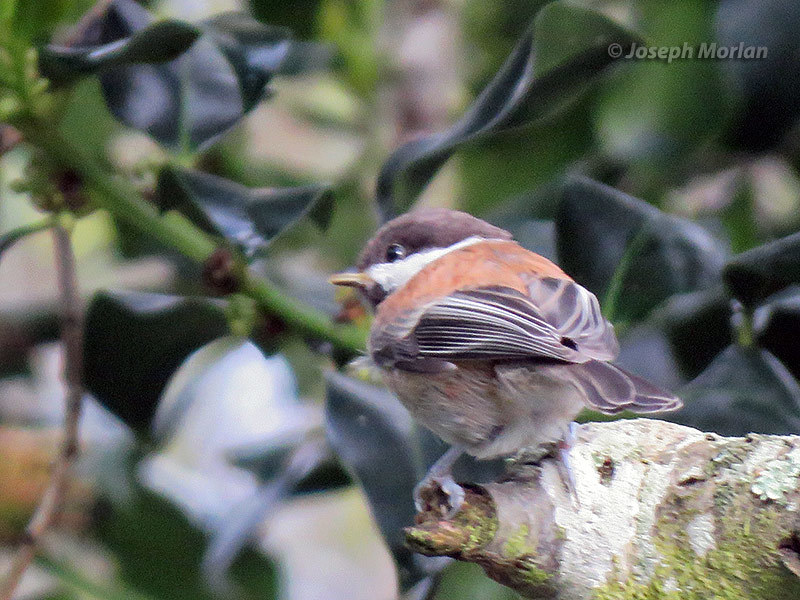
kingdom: Animalia
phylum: Chordata
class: Aves
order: Passeriformes
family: Paridae
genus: Poecile
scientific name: Poecile rufescens
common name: Chestnut-backed chickadee
